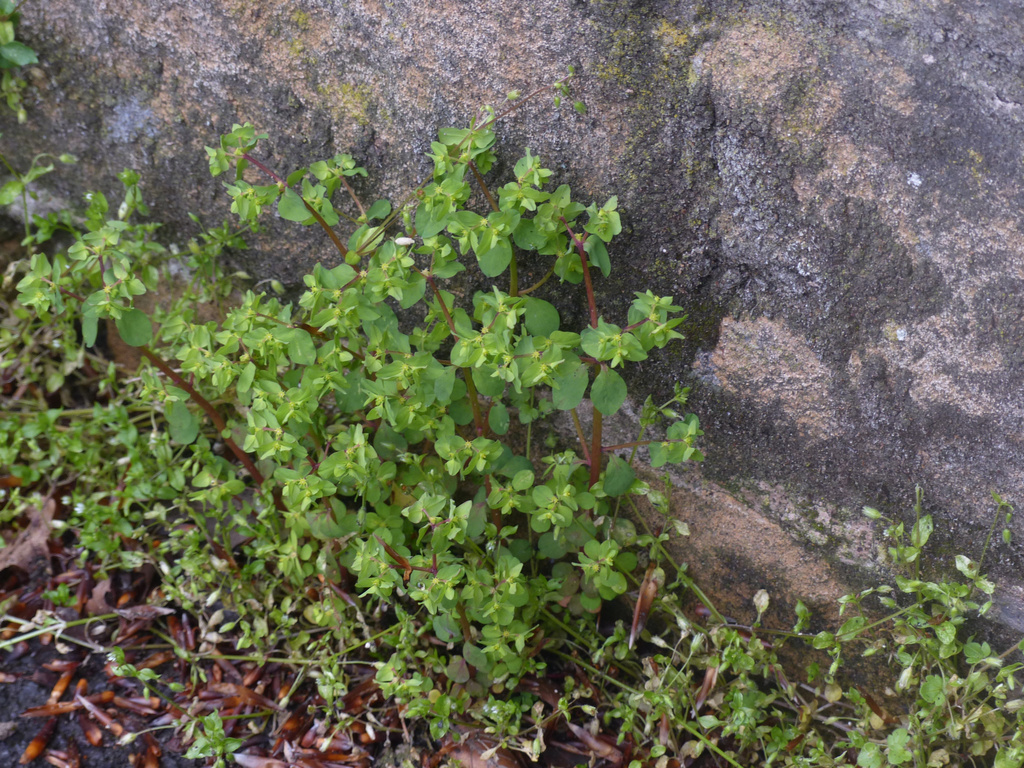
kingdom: Plantae
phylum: Tracheophyta
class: Magnoliopsida
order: Malpighiales
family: Euphorbiaceae
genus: Euphorbia
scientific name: Euphorbia peplus
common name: Petty spurge
